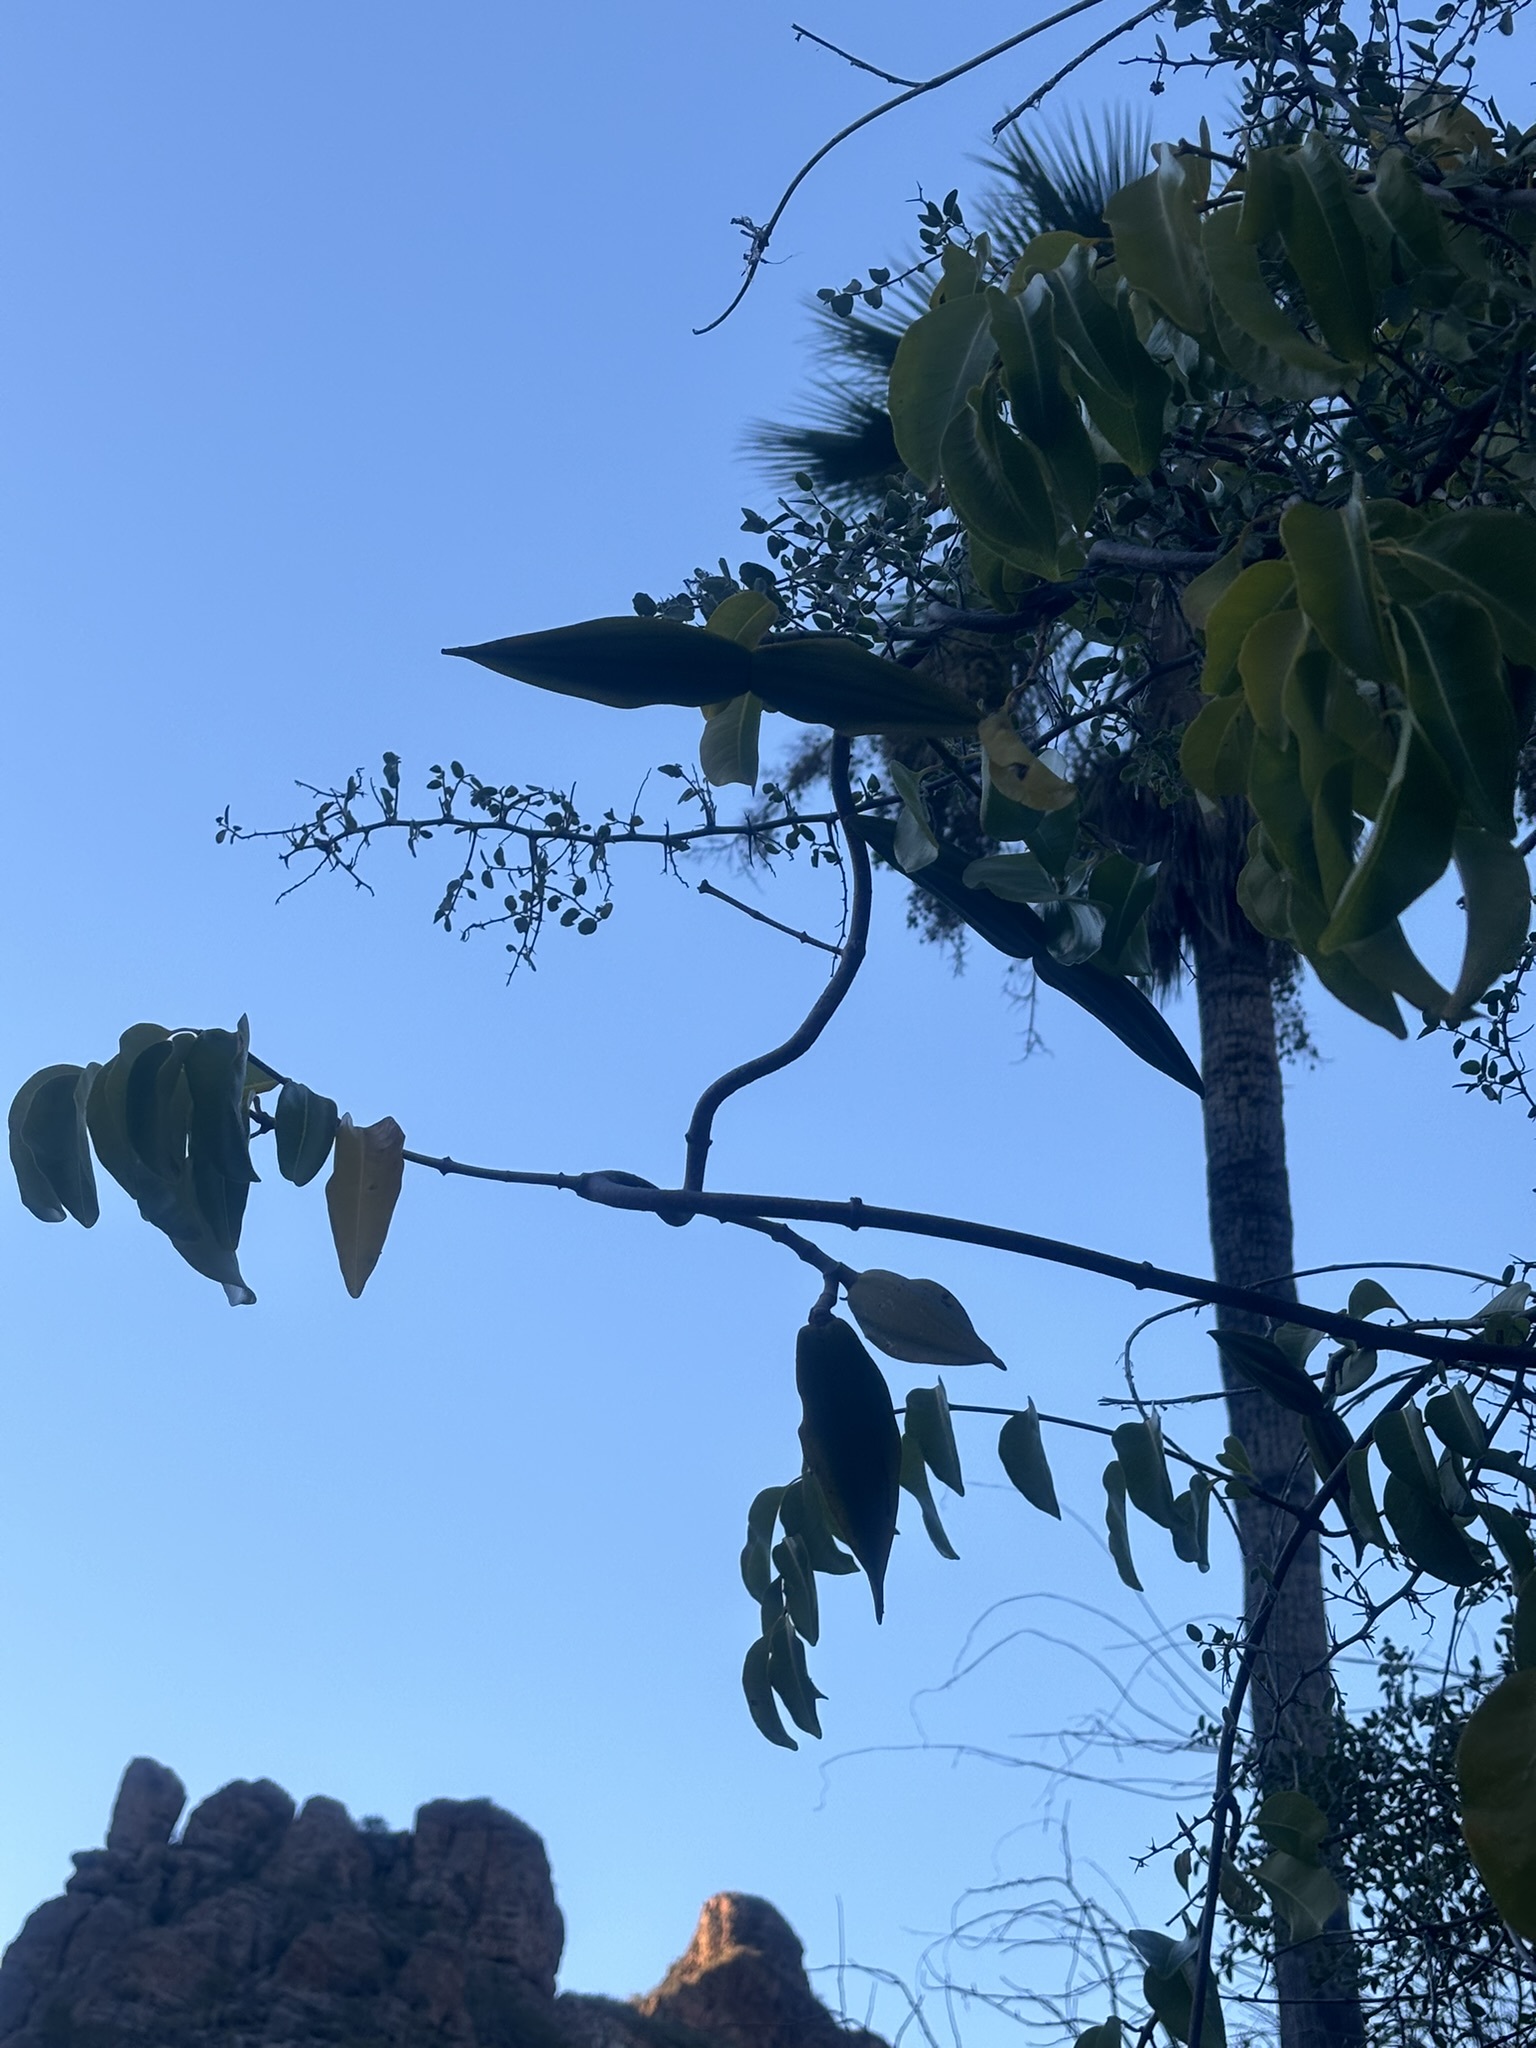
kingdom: Plantae
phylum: Tracheophyta
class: Magnoliopsida
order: Gentianales
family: Apocynaceae
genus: Cryptostegia
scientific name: Cryptostegia grandiflora
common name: Palay rubbervine
